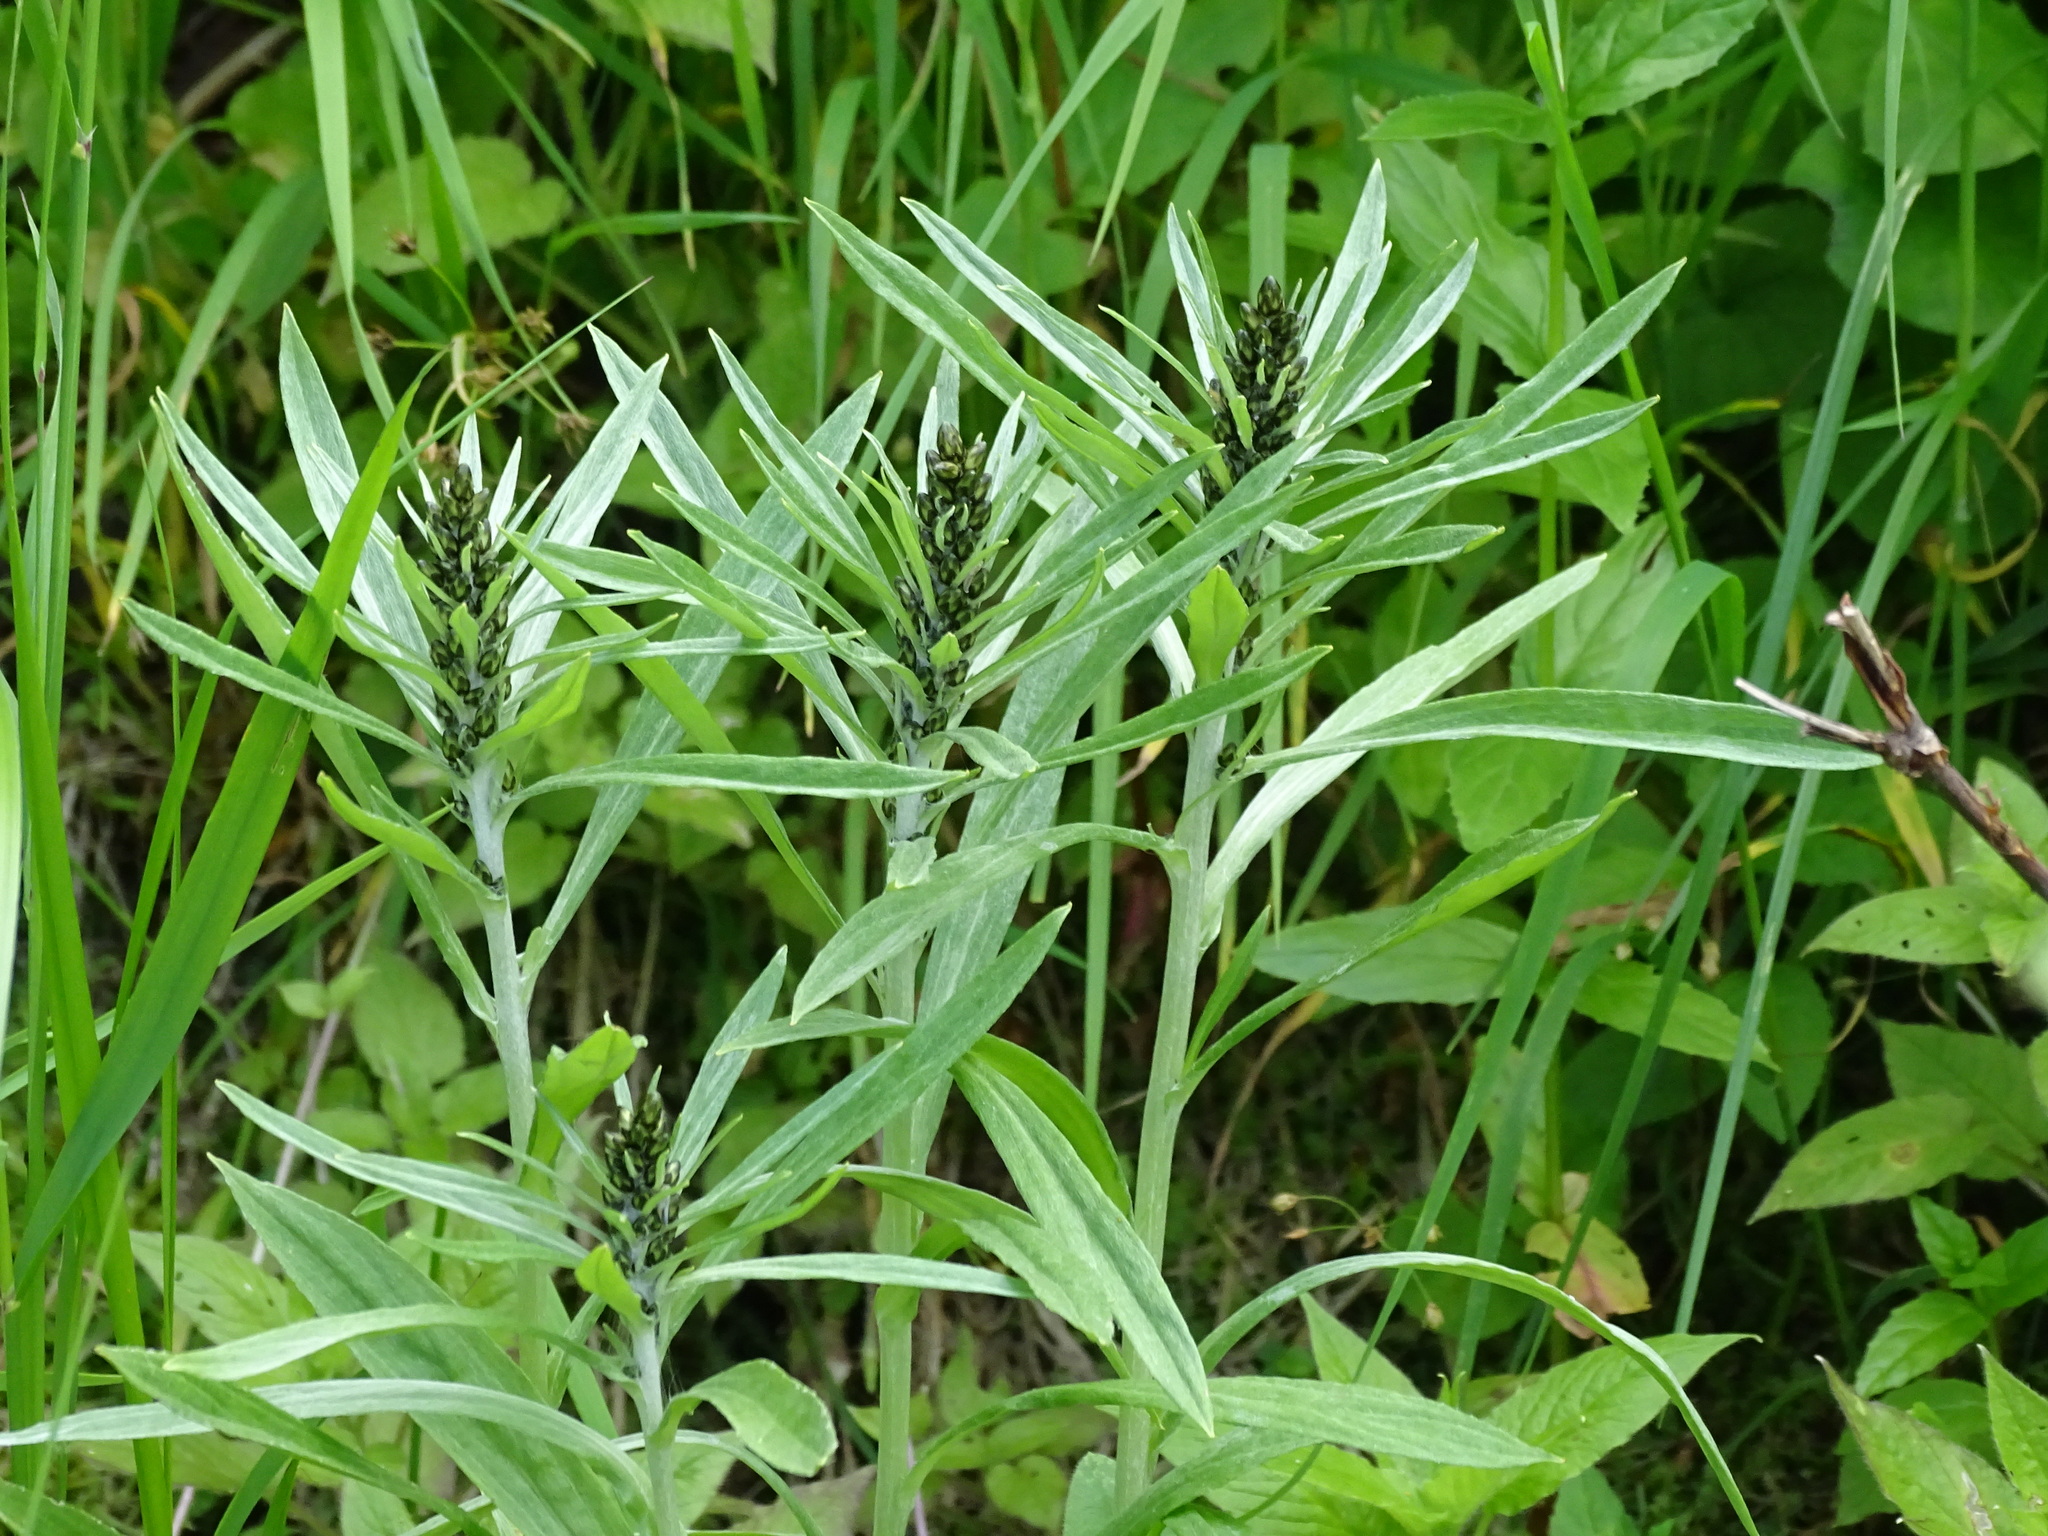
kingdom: Plantae
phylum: Tracheophyta
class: Magnoliopsida
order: Asterales
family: Asteraceae
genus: Omalotheca
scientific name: Omalotheca norvegica
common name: Norwegian arctic-cudweed
